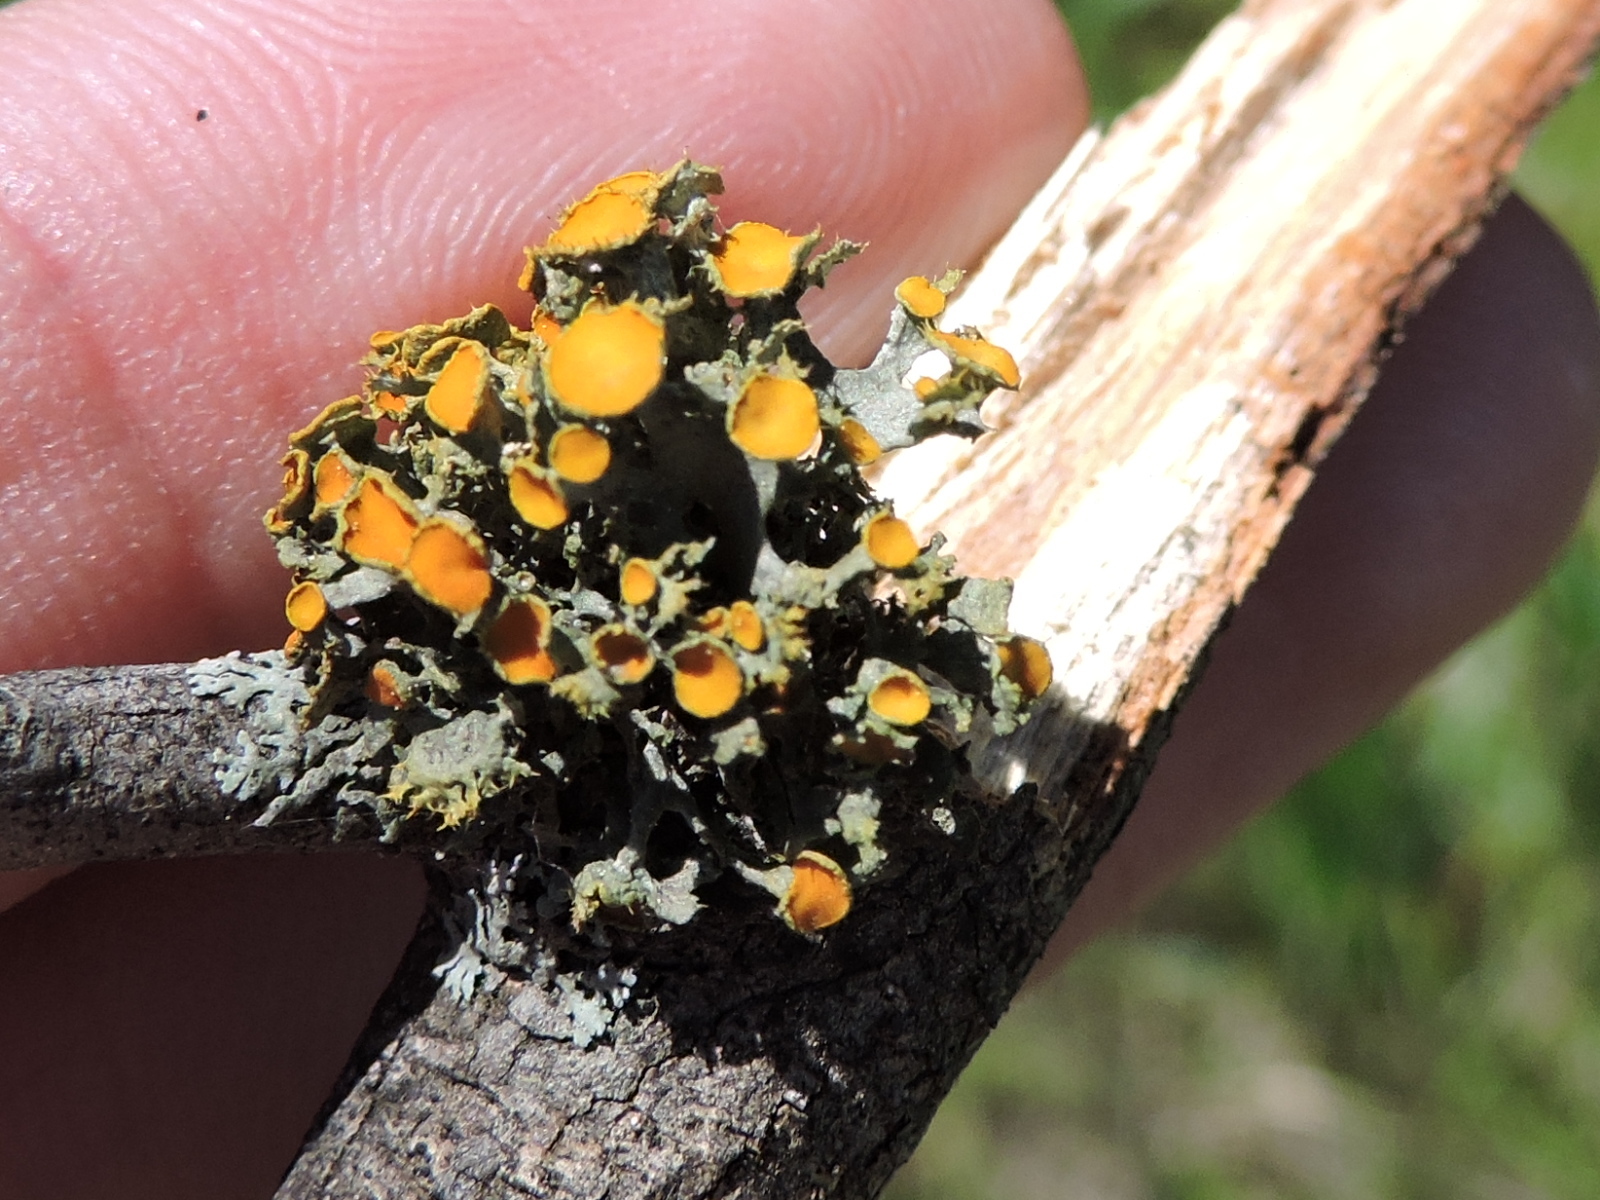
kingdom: Fungi
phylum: Ascomycota
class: Lecanoromycetes
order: Teloschistales
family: Teloschistaceae
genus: Niorma
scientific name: Niorma chrysophthalma
